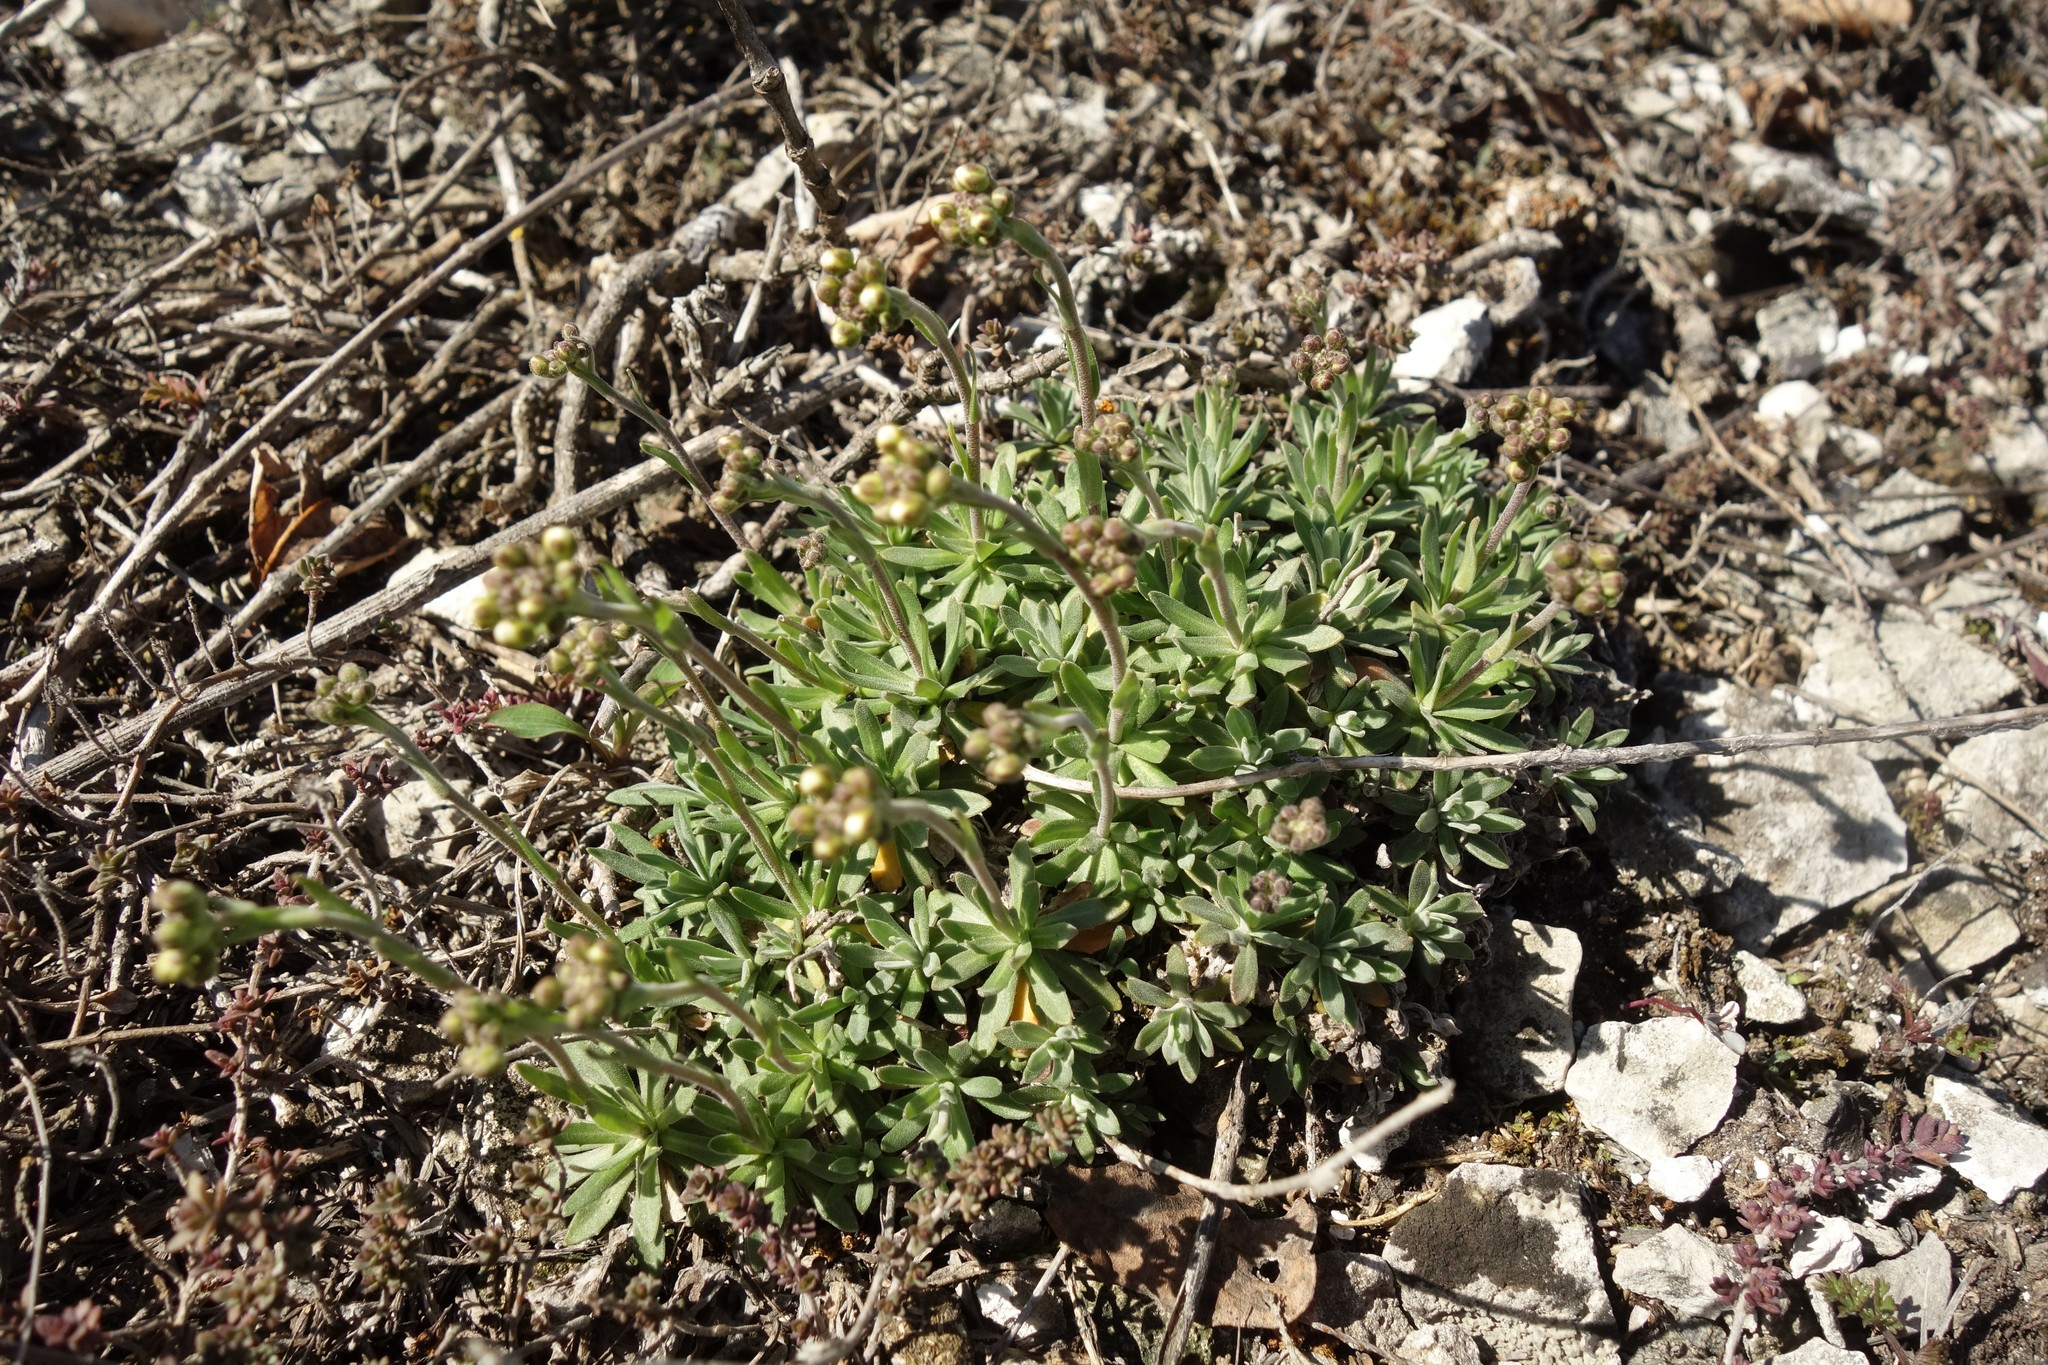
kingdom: Plantae
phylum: Tracheophyta
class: Magnoliopsida
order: Brassicales
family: Brassicaceae
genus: Draba
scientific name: Draba hyperborea
